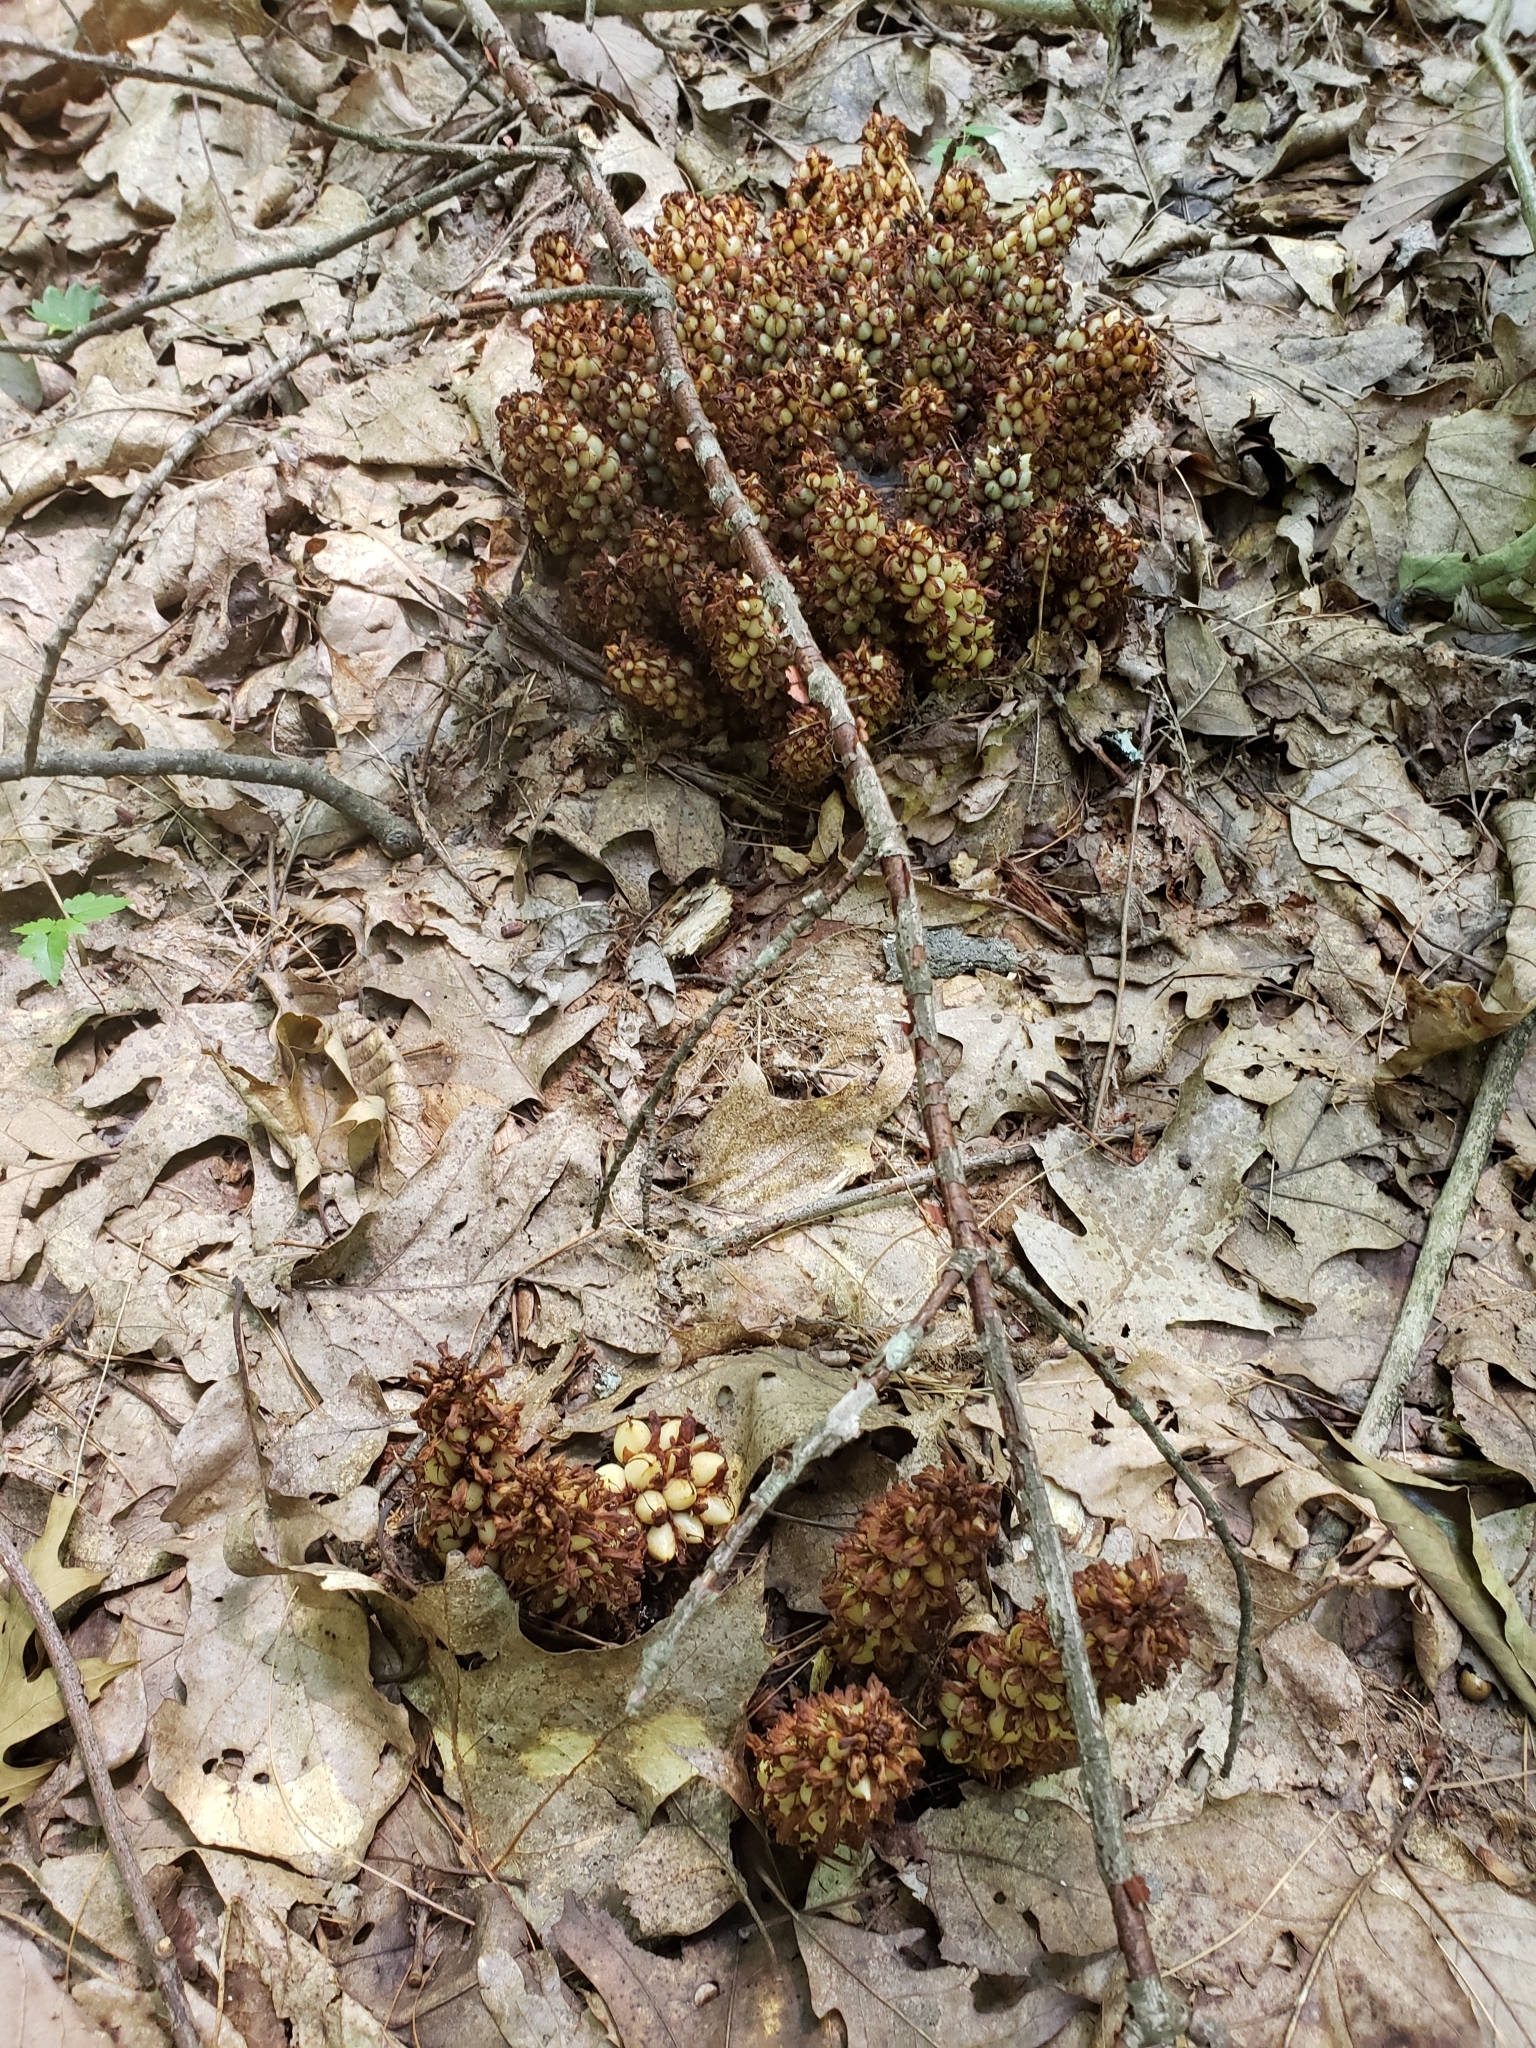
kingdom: Plantae
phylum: Tracheophyta
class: Magnoliopsida
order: Lamiales
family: Orobanchaceae
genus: Conopholis
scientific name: Conopholis americana
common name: American cancer-root
